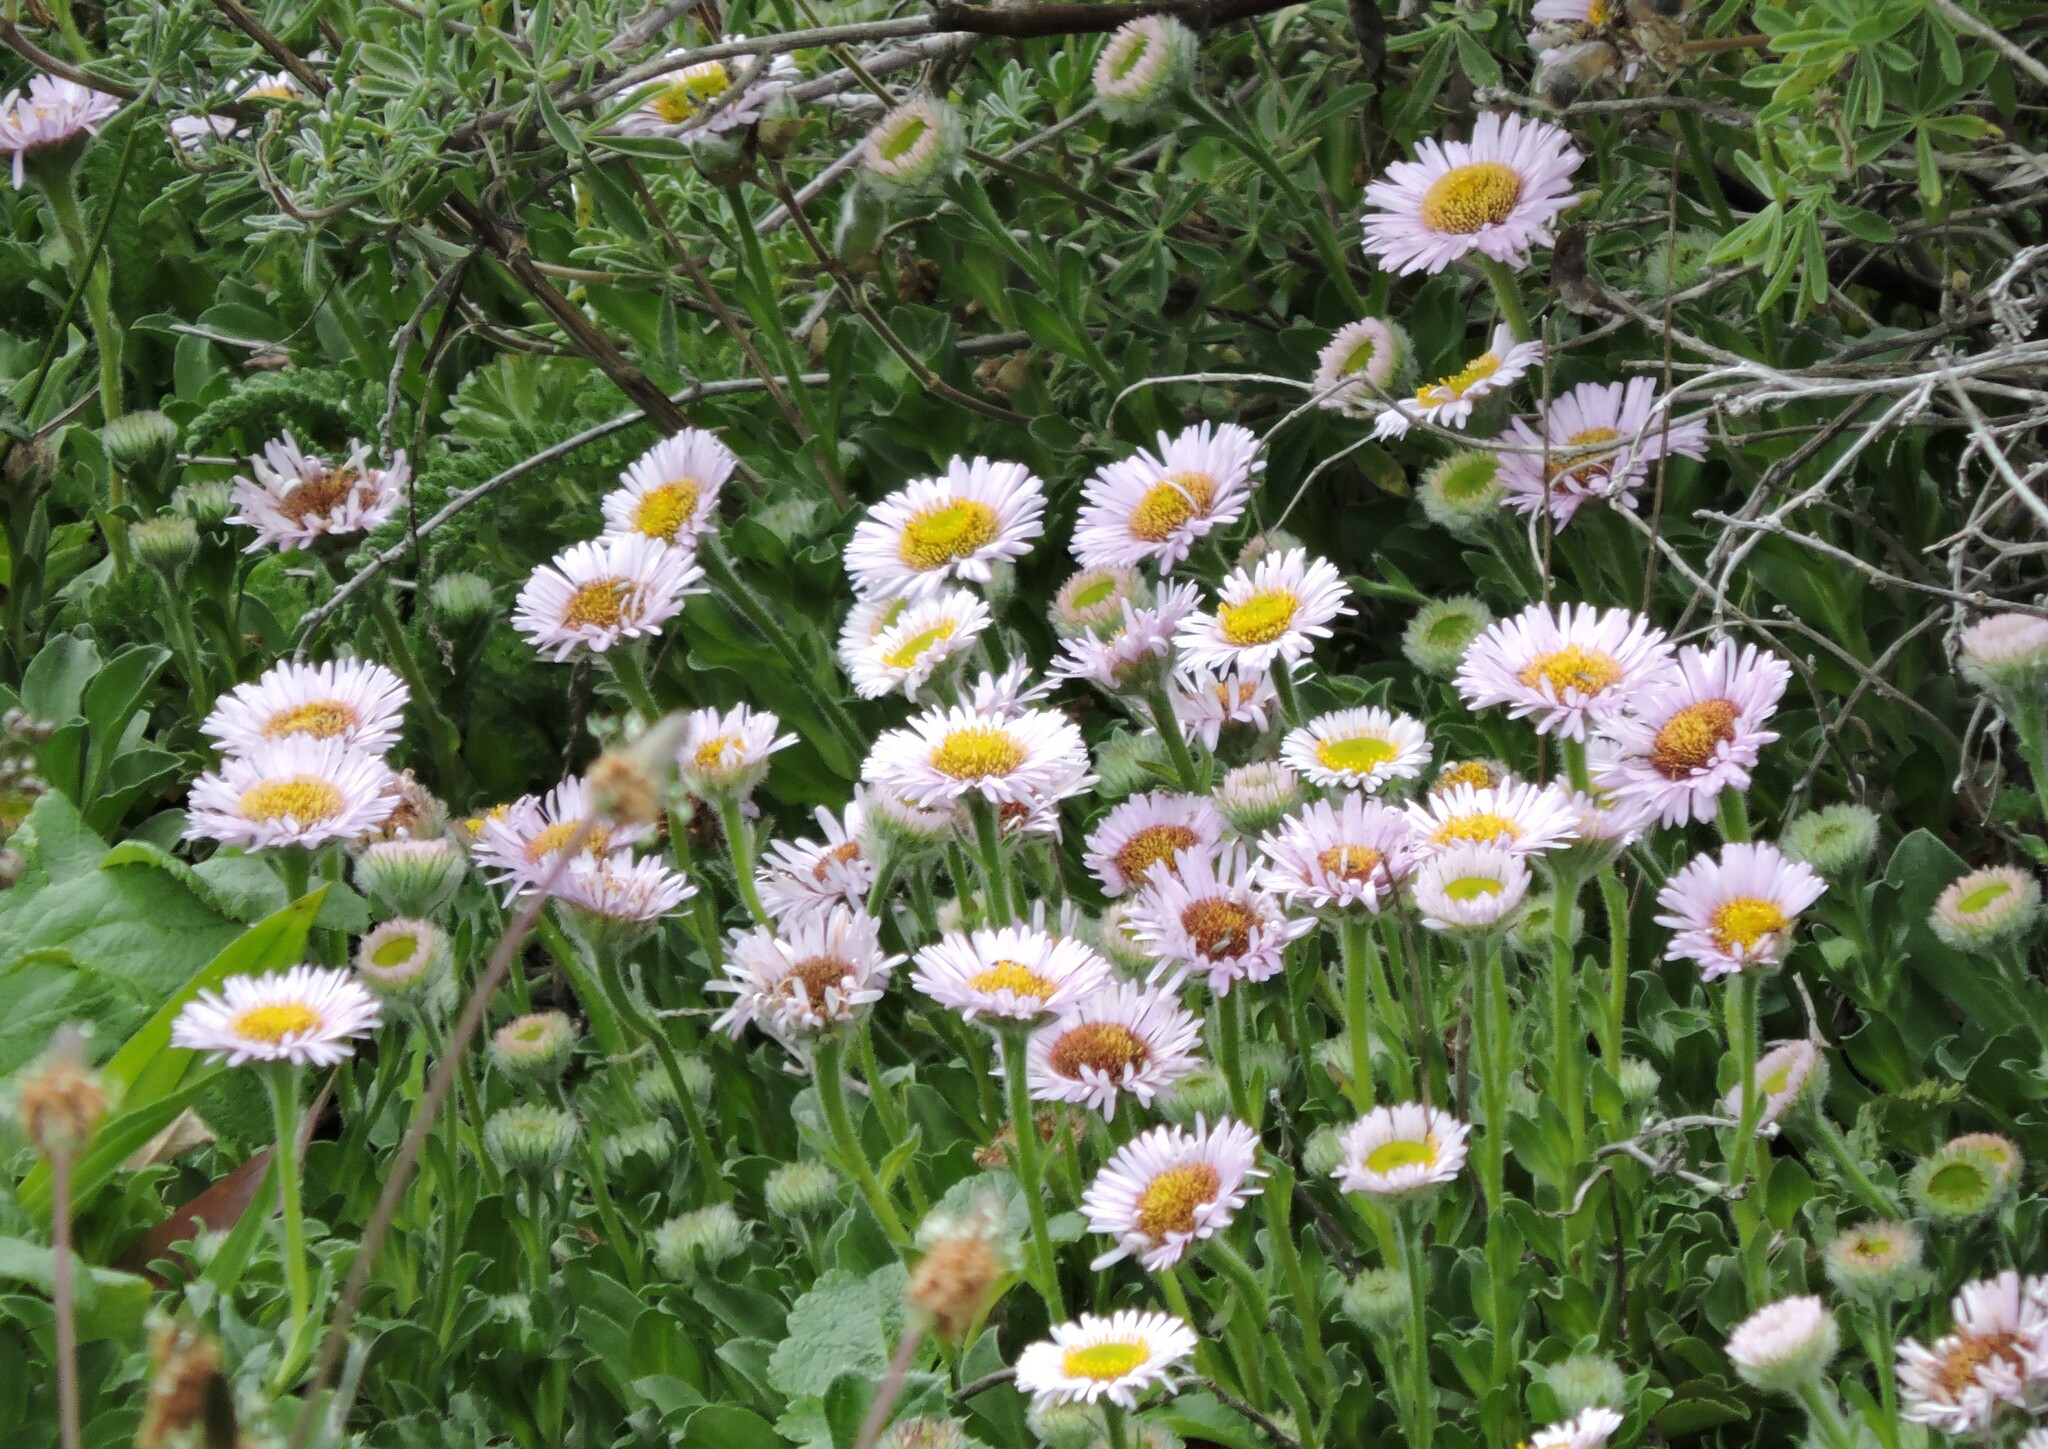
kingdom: Plantae
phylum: Tracheophyta
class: Magnoliopsida
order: Asterales
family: Asteraceae
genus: Erigeron
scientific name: Erigeron glaucus
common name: Seaside daisy
